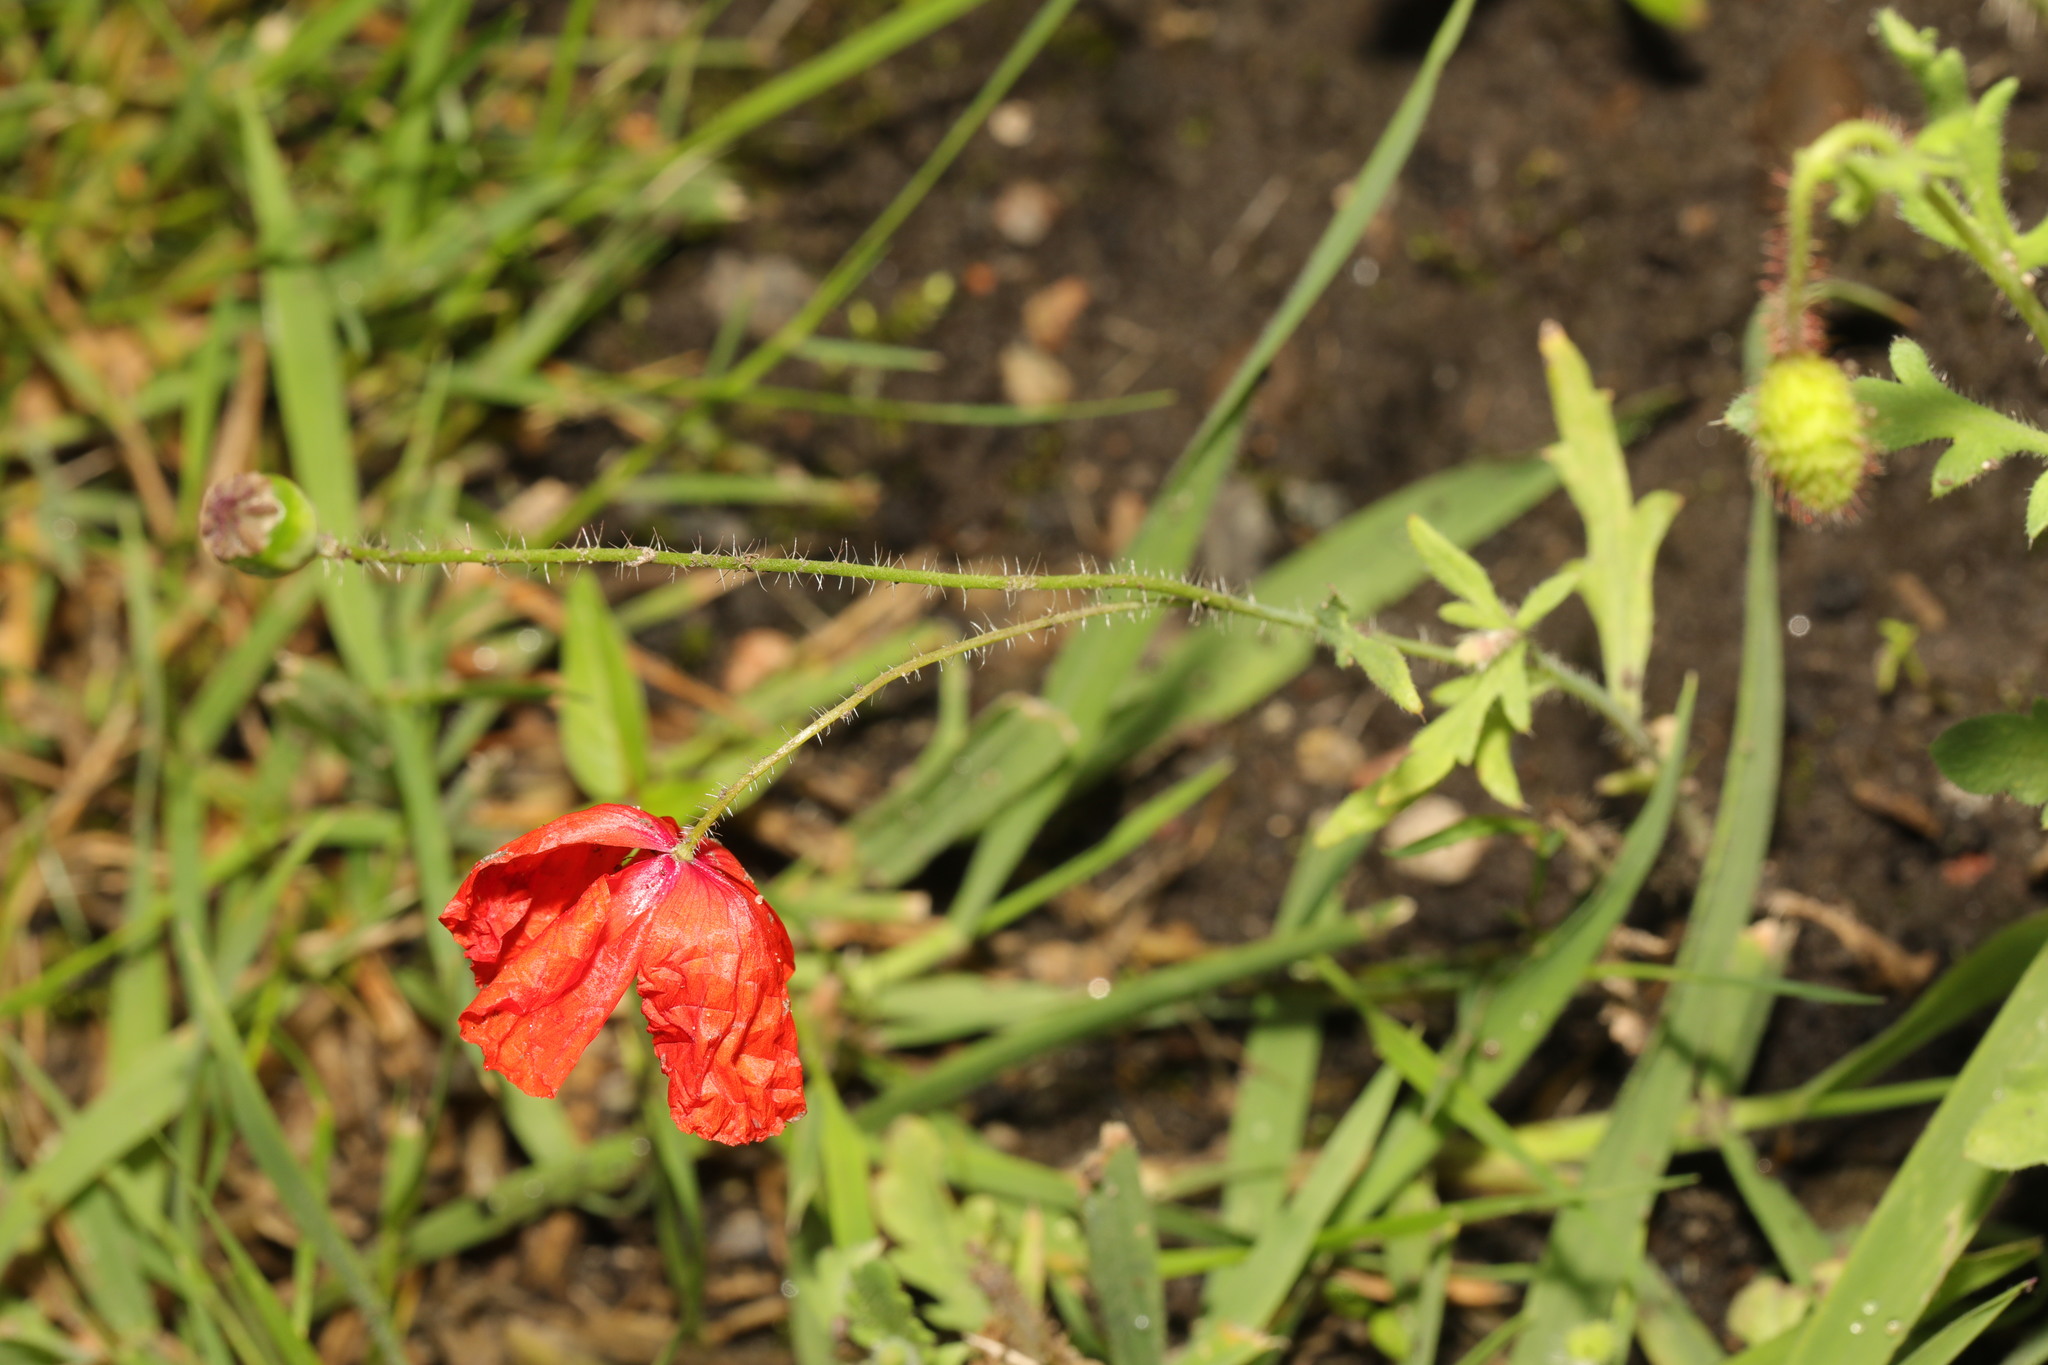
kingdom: Plantae
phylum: Tracheophyta
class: Magnoliopsida
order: Ranunculales
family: Papaveraceae
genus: Papaver
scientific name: Papaver rhoeas
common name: Corn poppy
